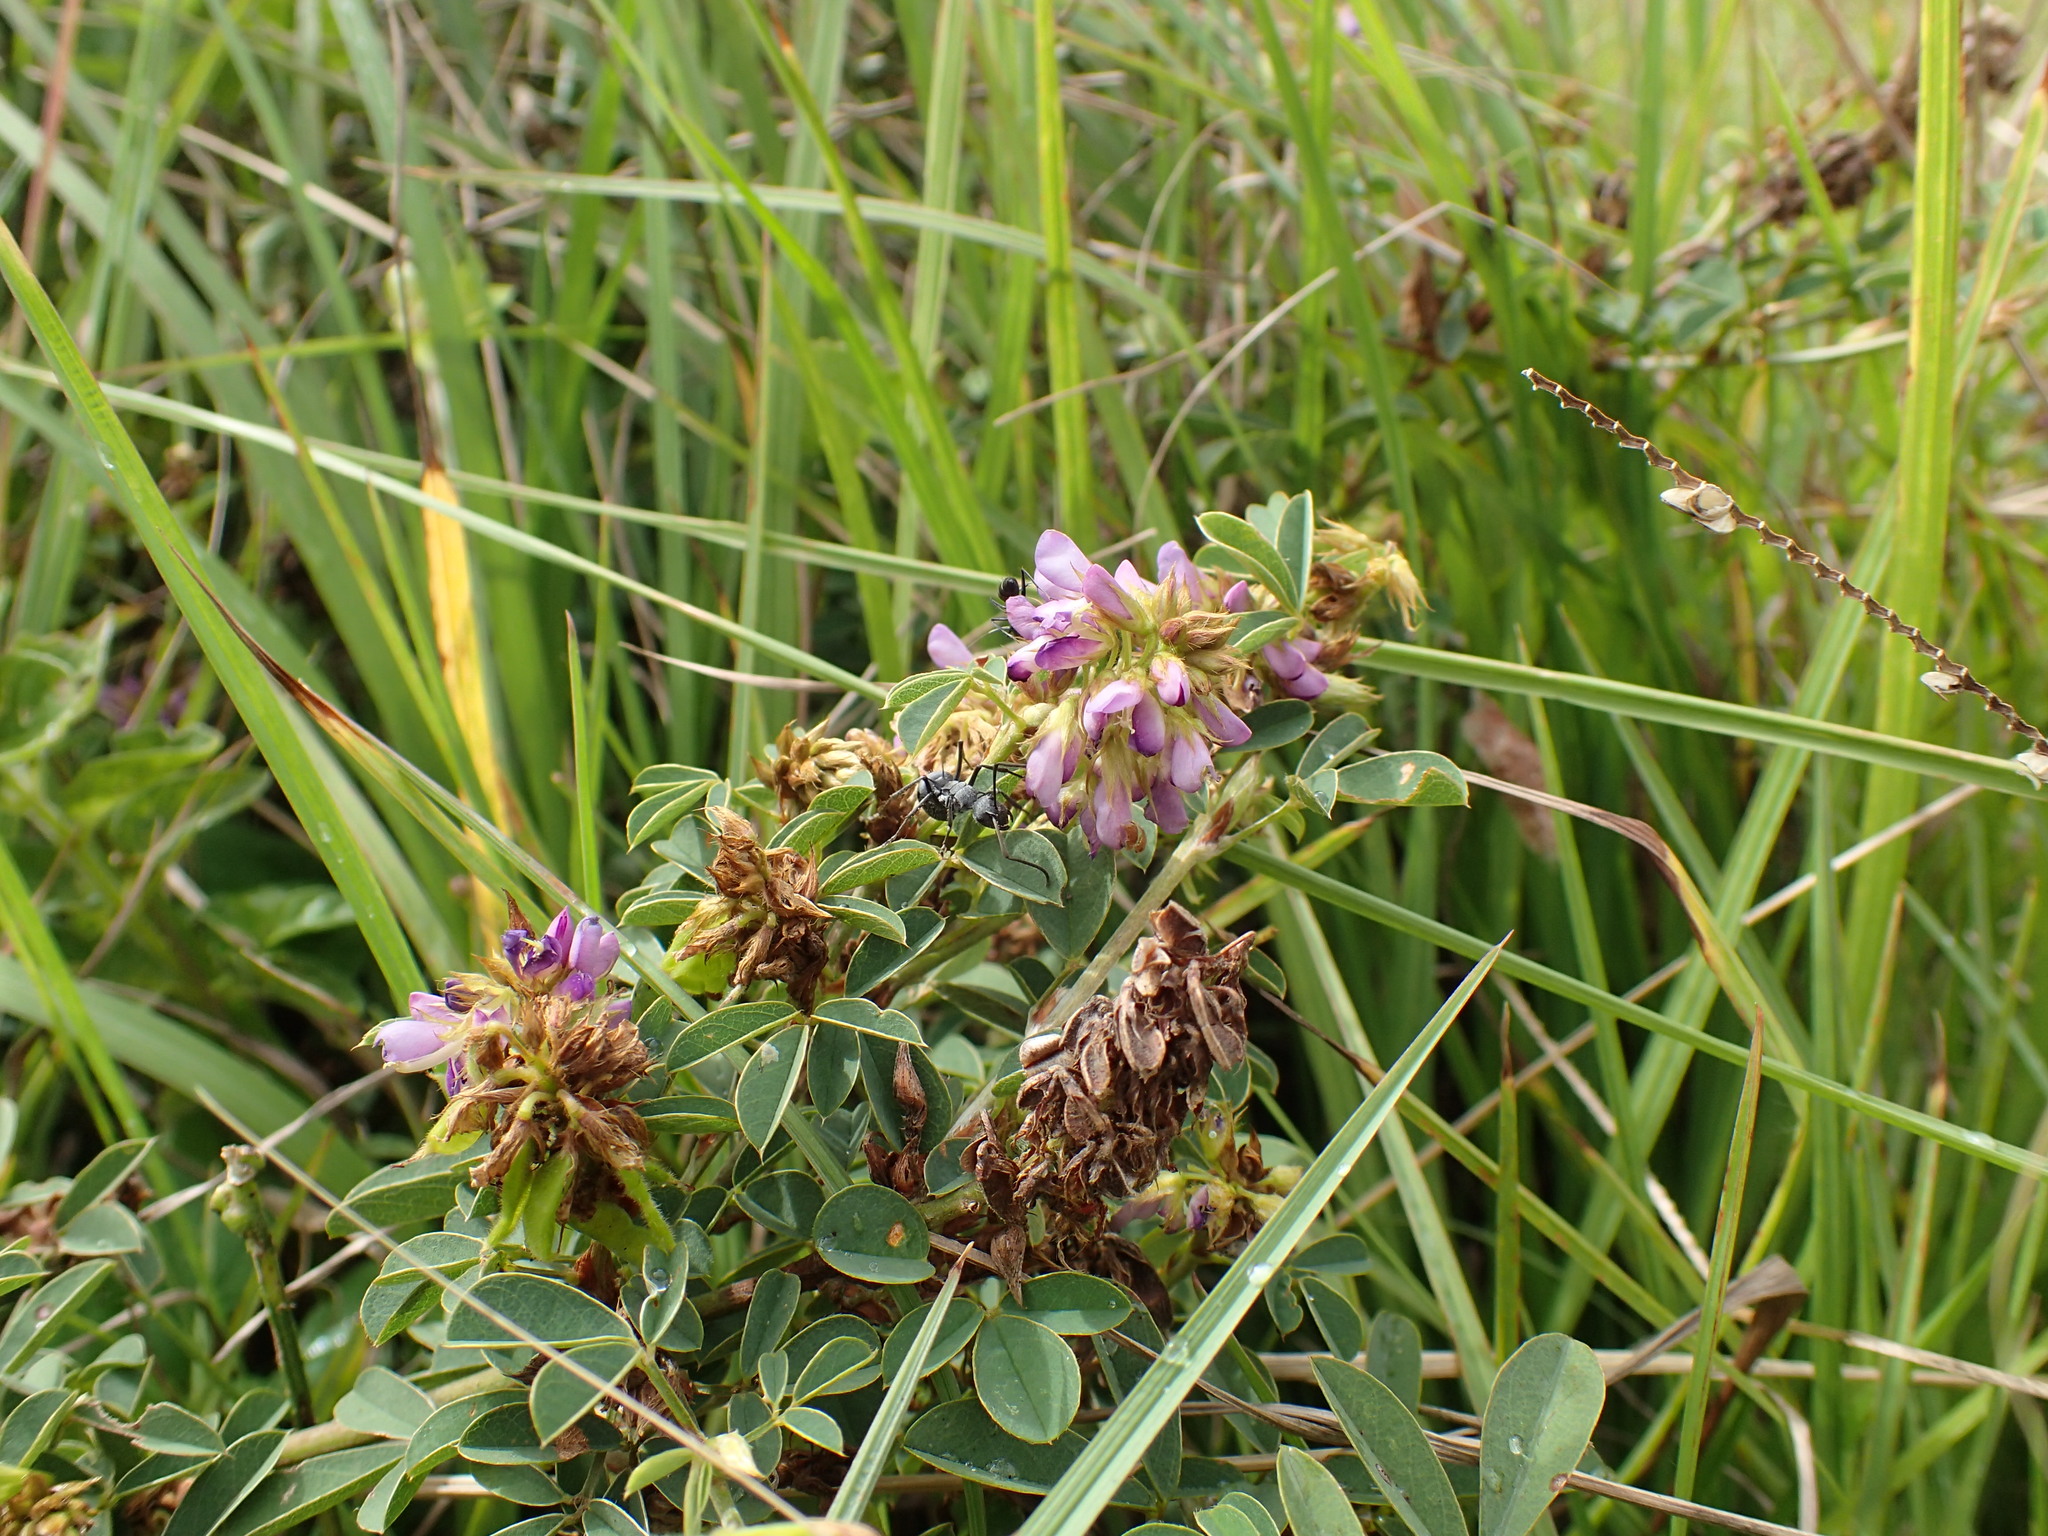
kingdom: Plantae
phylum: Tracheophyta
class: Magnoliopsida
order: Fabales
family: Fabaceae
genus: Grona
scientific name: Grona caffra
